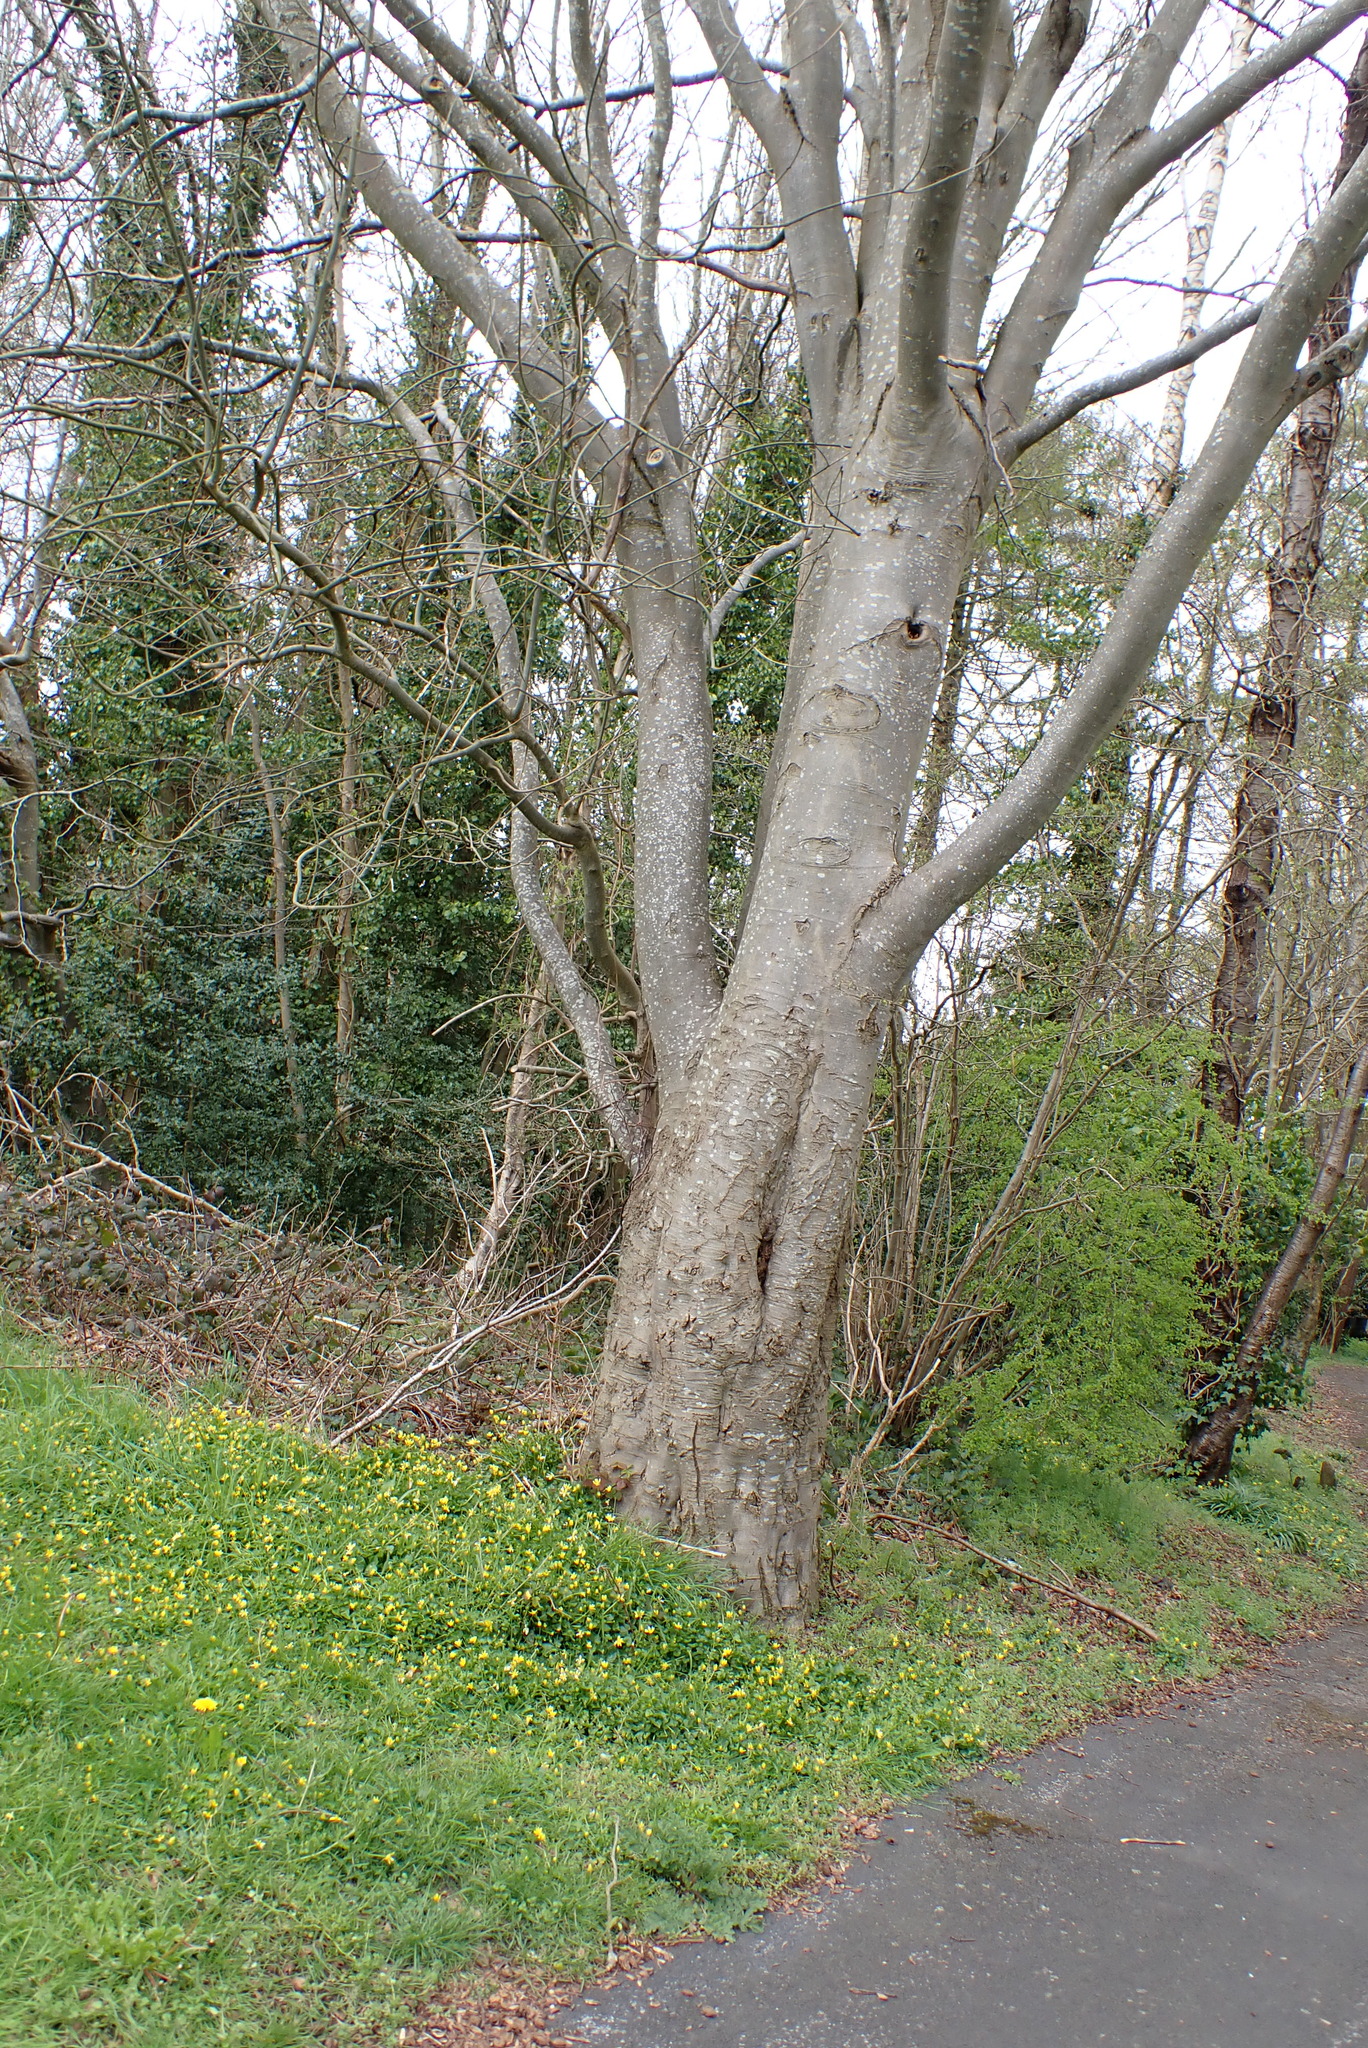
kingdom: Plantae
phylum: Tracheophyta
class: Magnoliopsida
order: Fagales
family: Fagaceae
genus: Fagus
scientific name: Fagus sylvatica
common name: Beech
